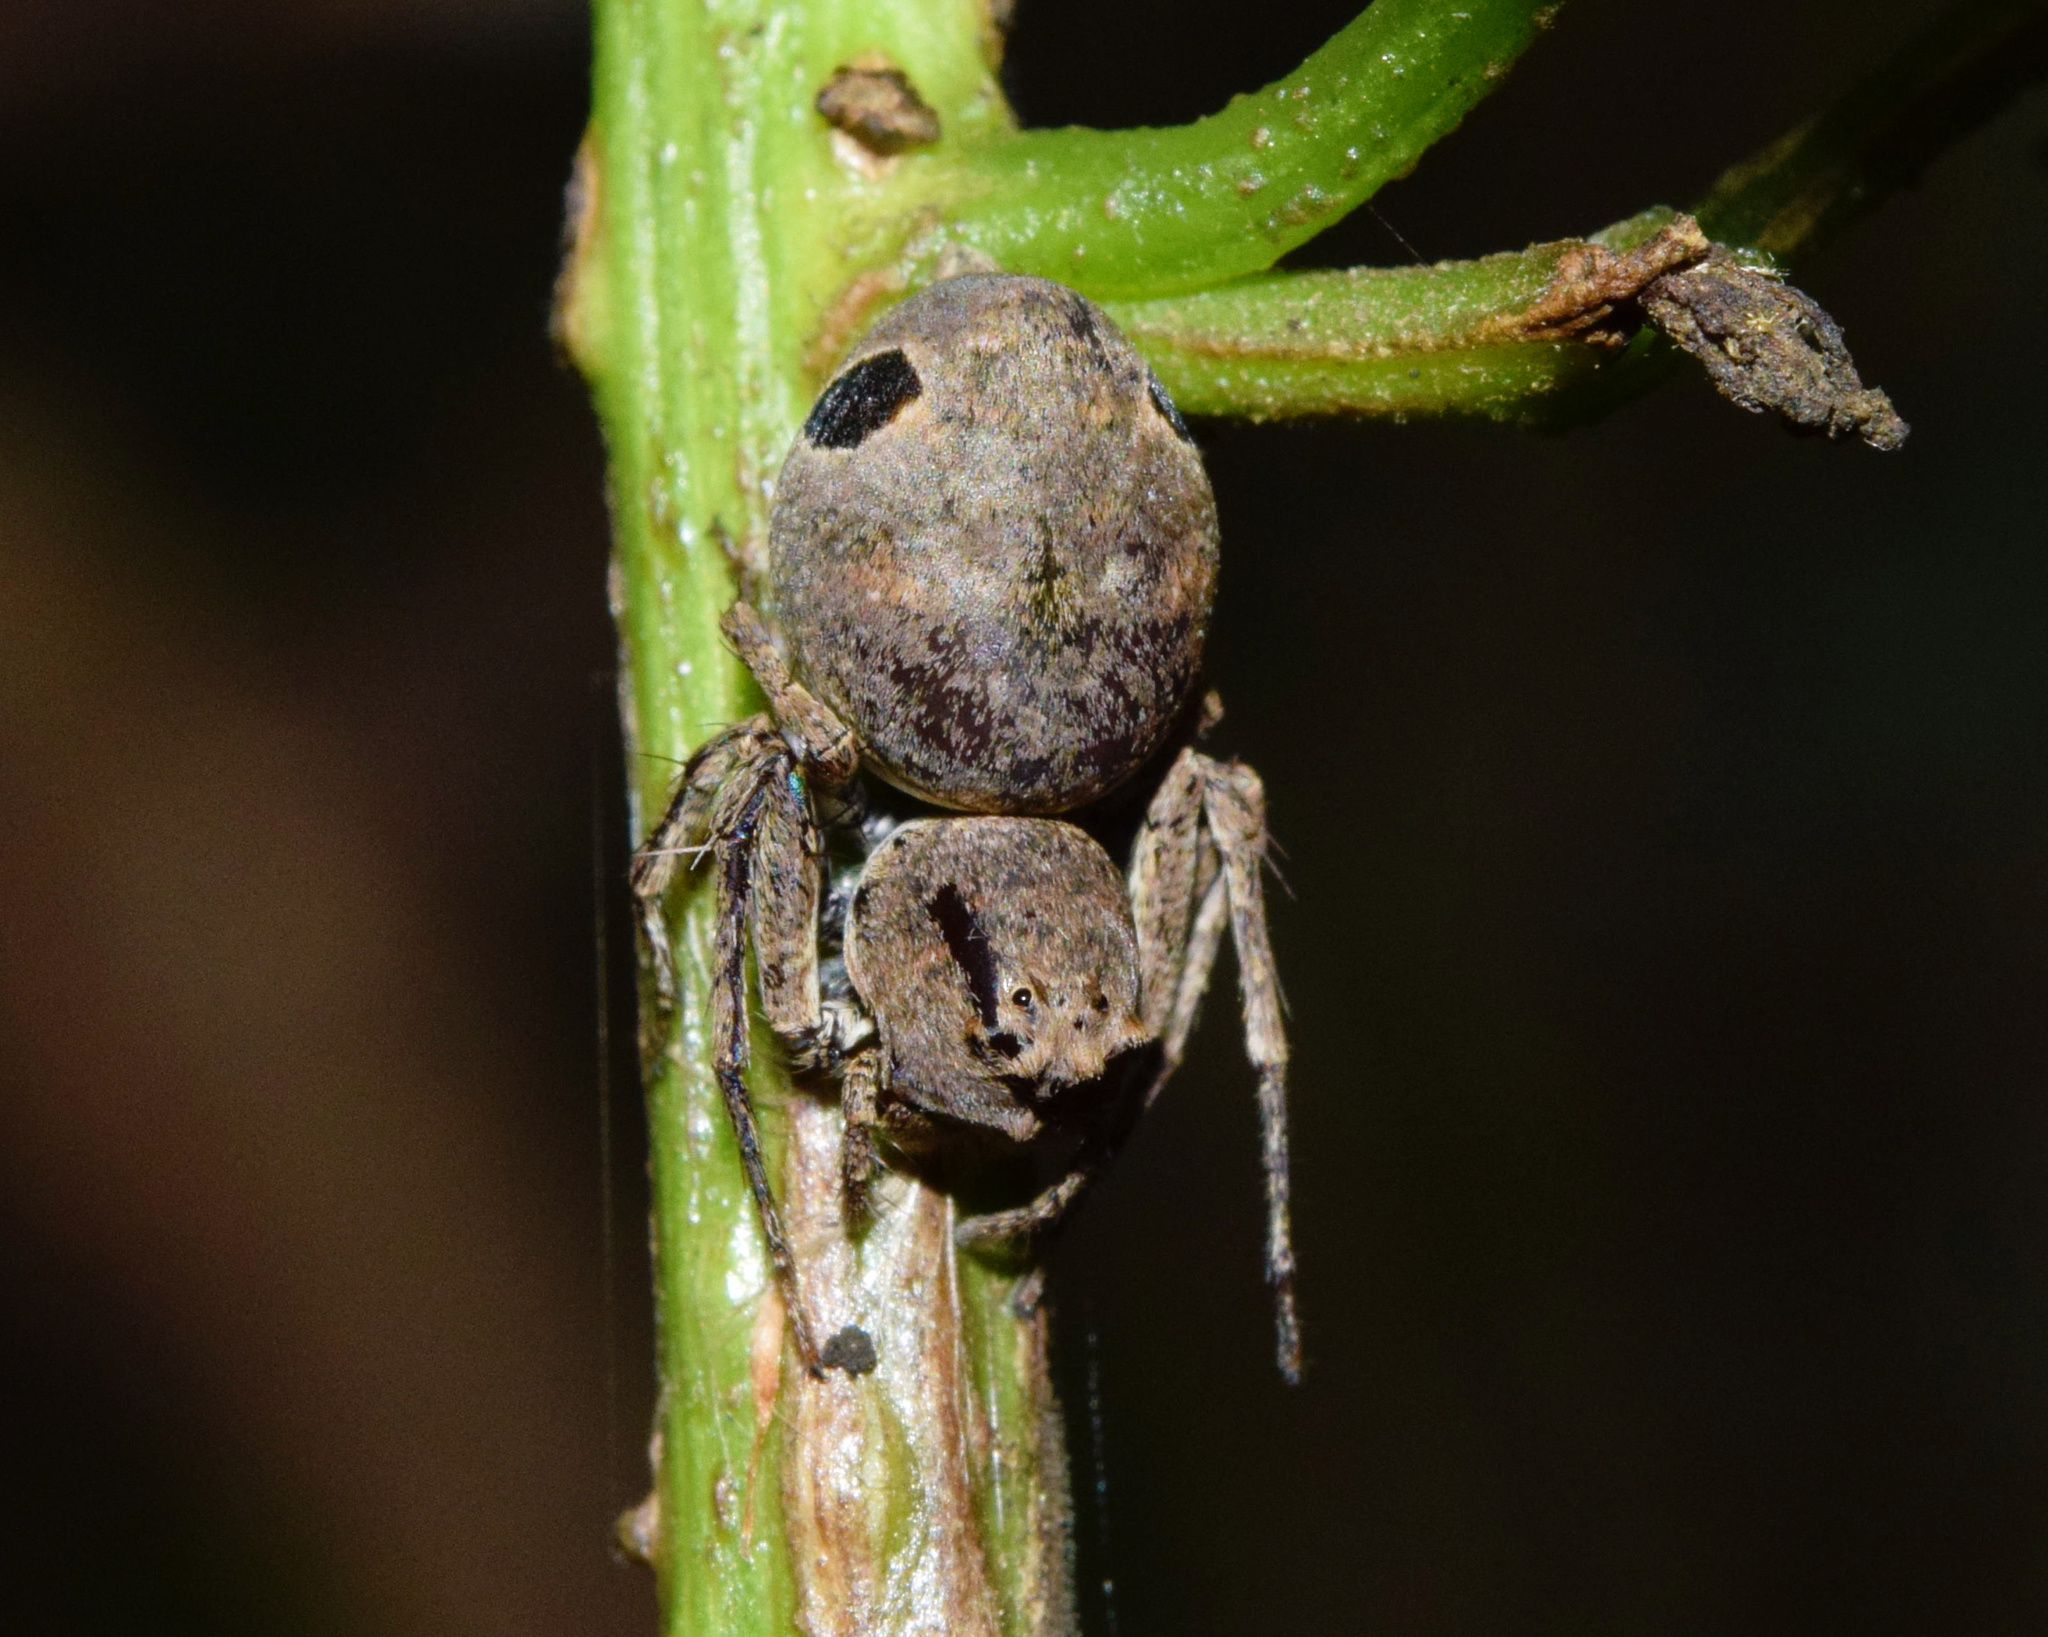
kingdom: Animalia
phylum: Arthropoda
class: Arachnida
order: Araneae
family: Oxyopidae
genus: Hamataliwa
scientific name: Hamataliwa rostrifrons
